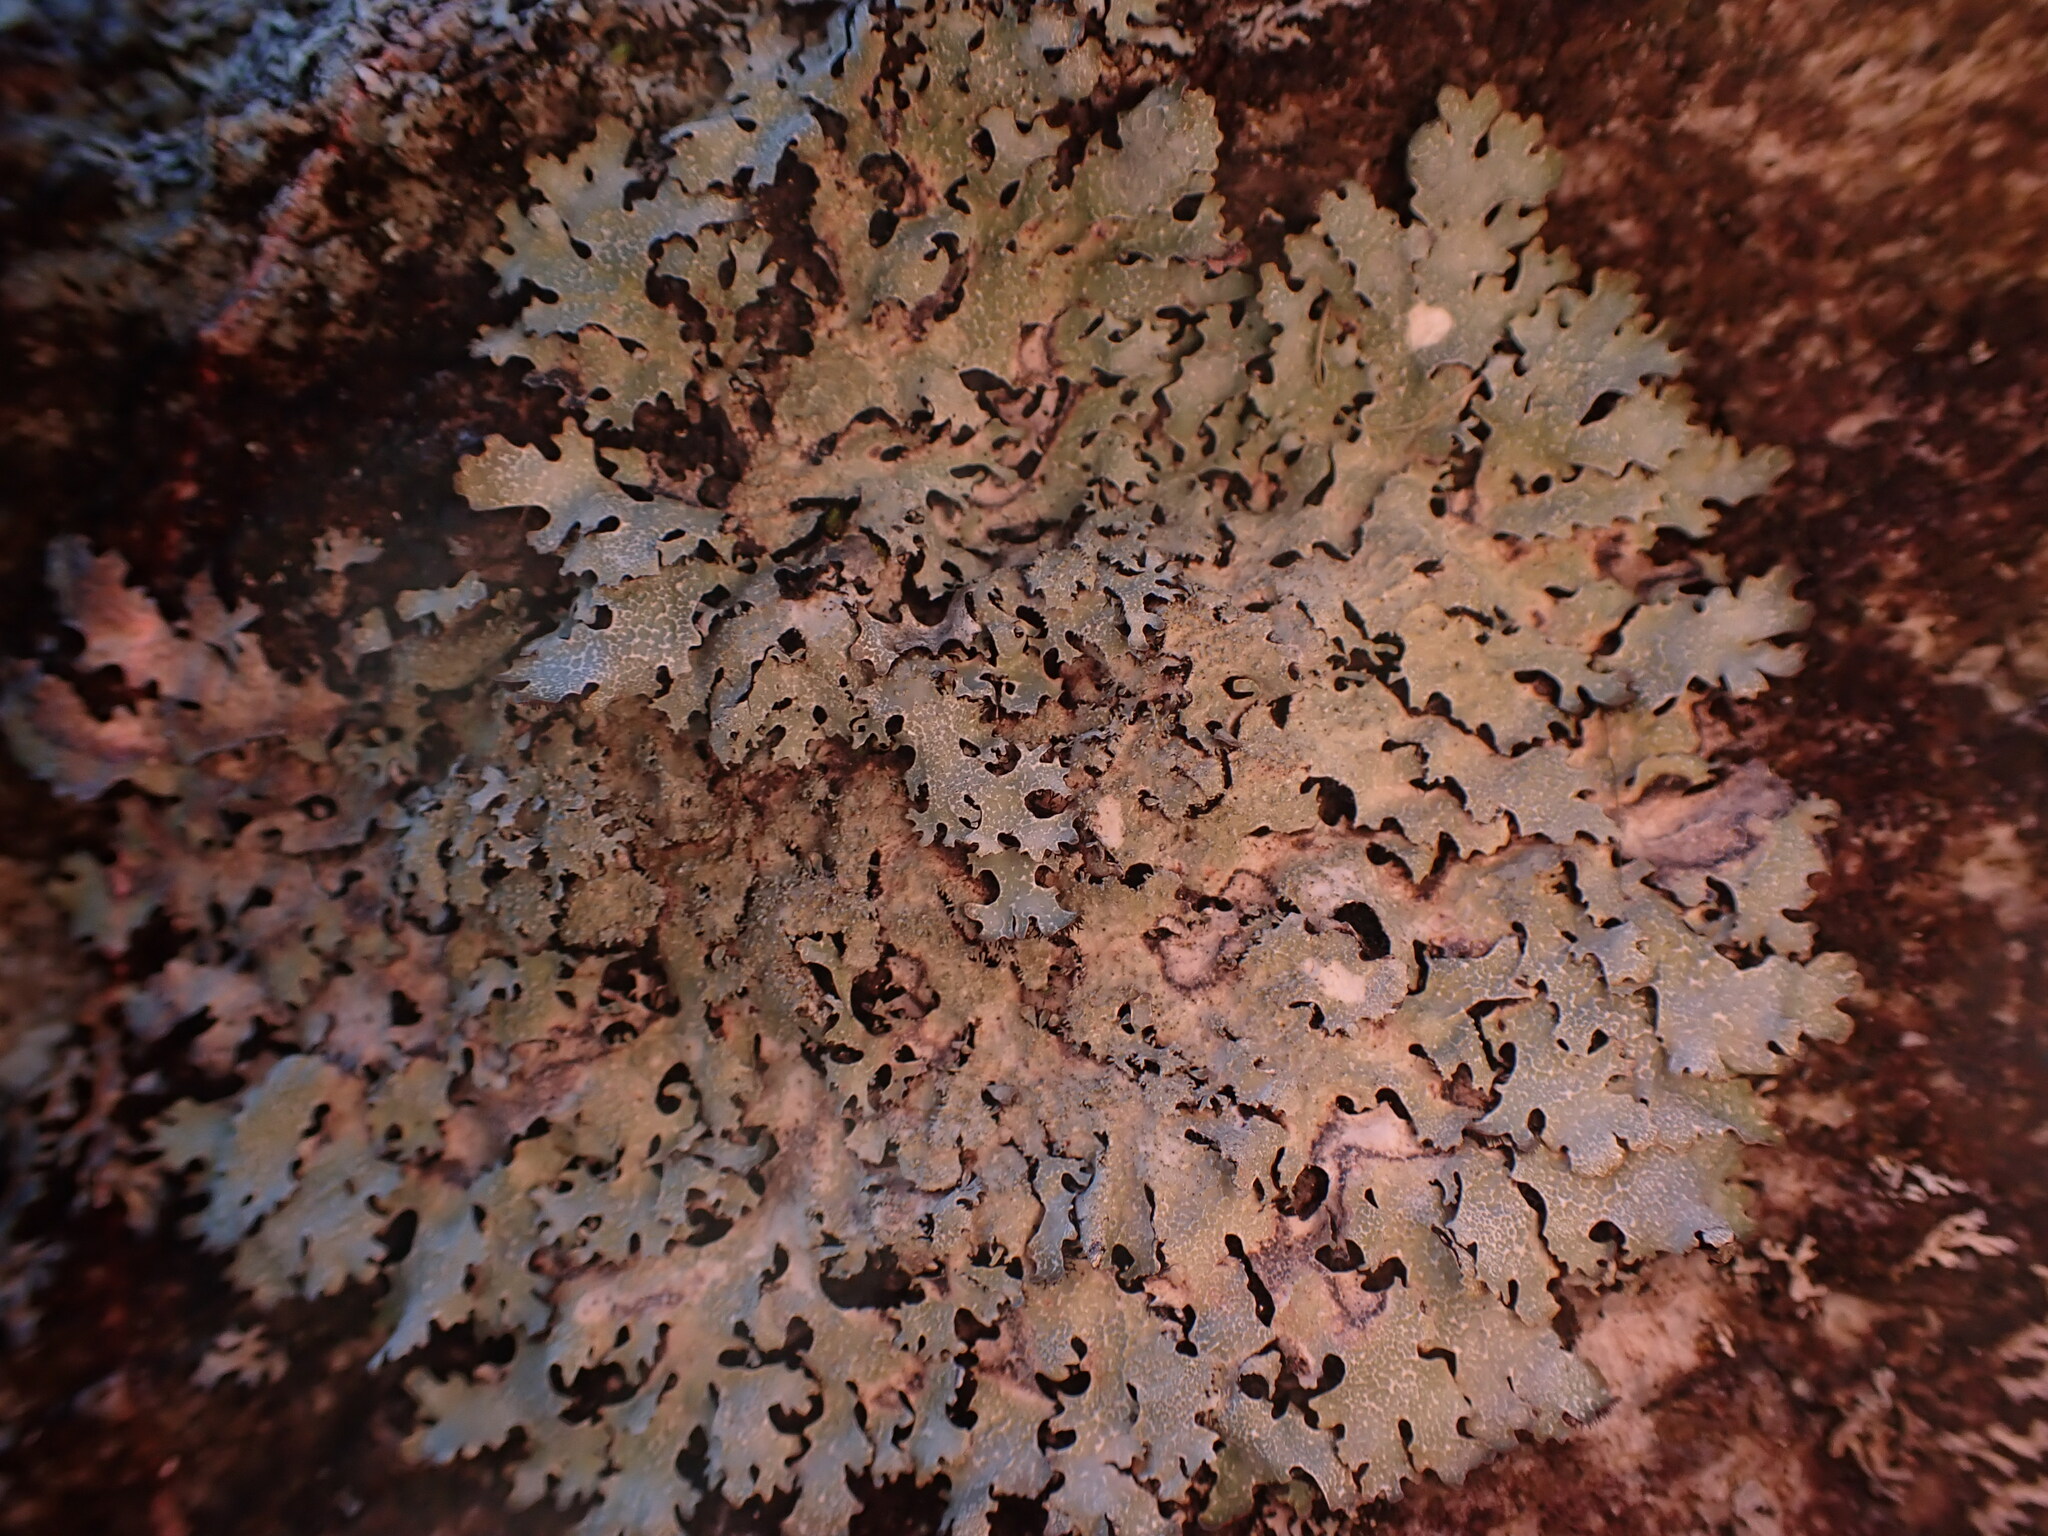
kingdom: Fungi
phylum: Ascomycota
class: Lecanoromycetes
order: Lecanorales
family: Parmeliaceae
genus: Parmelia
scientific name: Parmelia saxatilis
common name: Salted shield lichen
